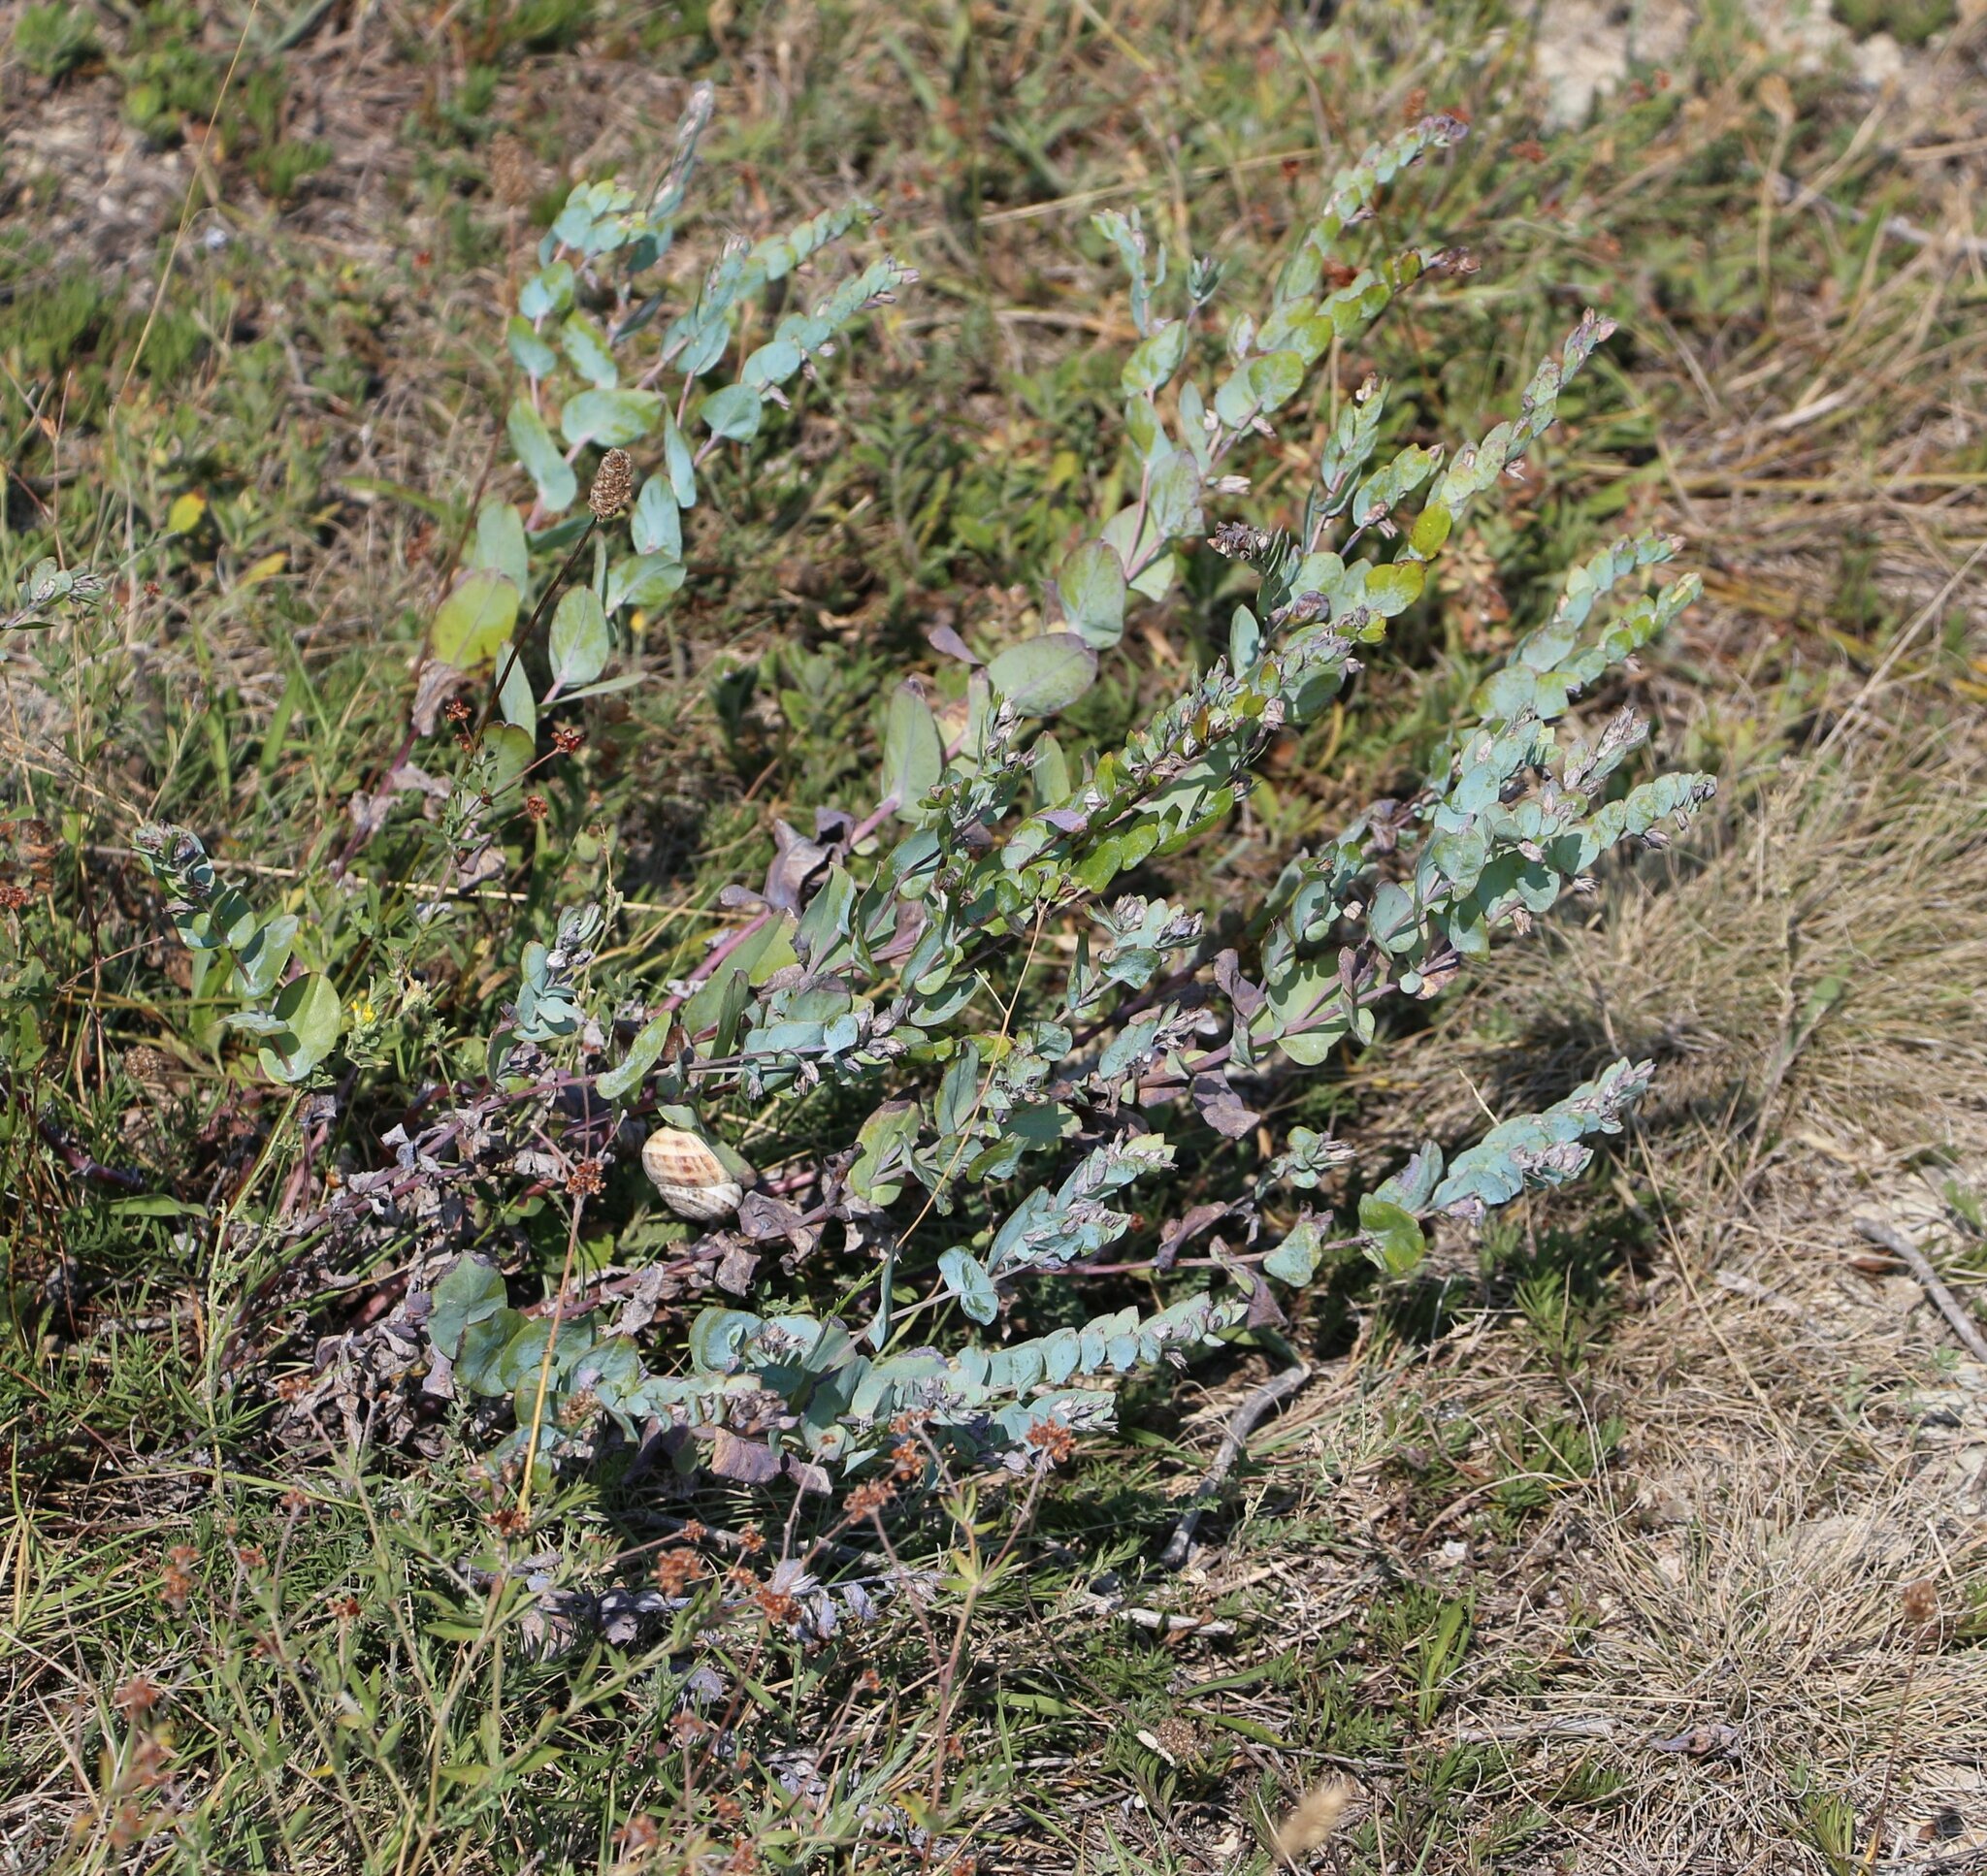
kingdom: Plantae
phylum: Tracheophyta
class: Magnoliopsida
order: Boraginales
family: Boraginaceae
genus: Cerinthe
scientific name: Cerinthe minor
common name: Lesser honeywort
